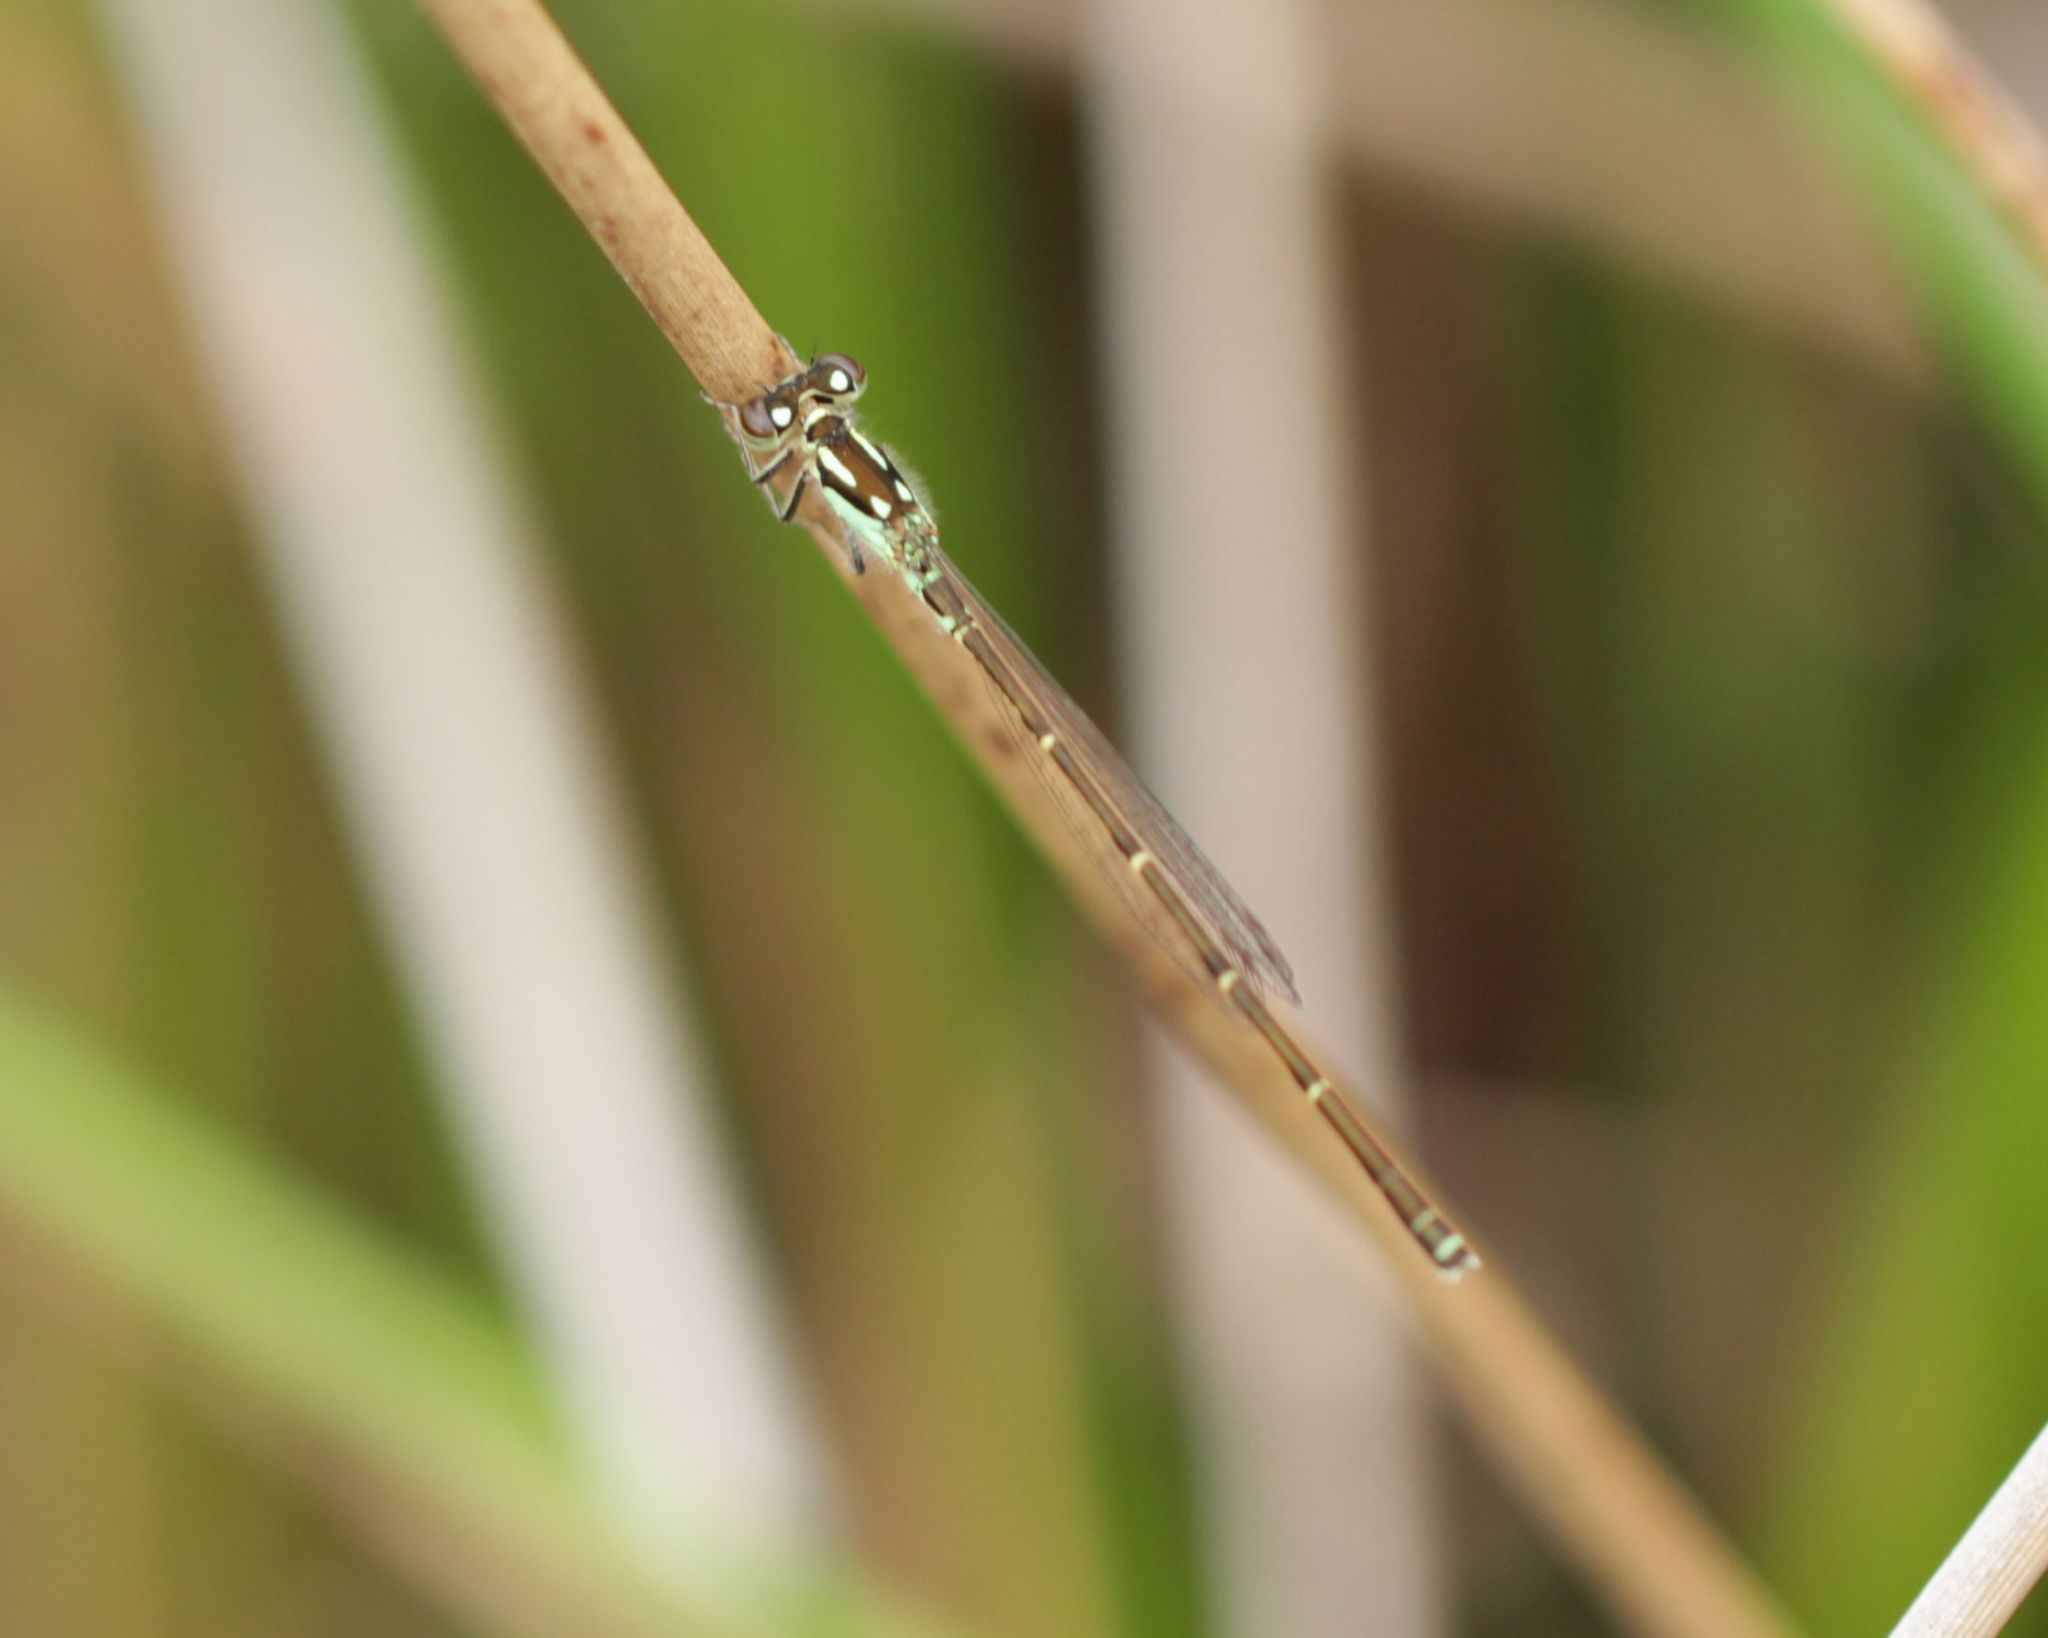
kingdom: Animalia
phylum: Arthropoda
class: Insecta
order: Odonata
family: Coenagrionidae
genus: Ischnura
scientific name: Ischnura posita
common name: Fragile forktail
